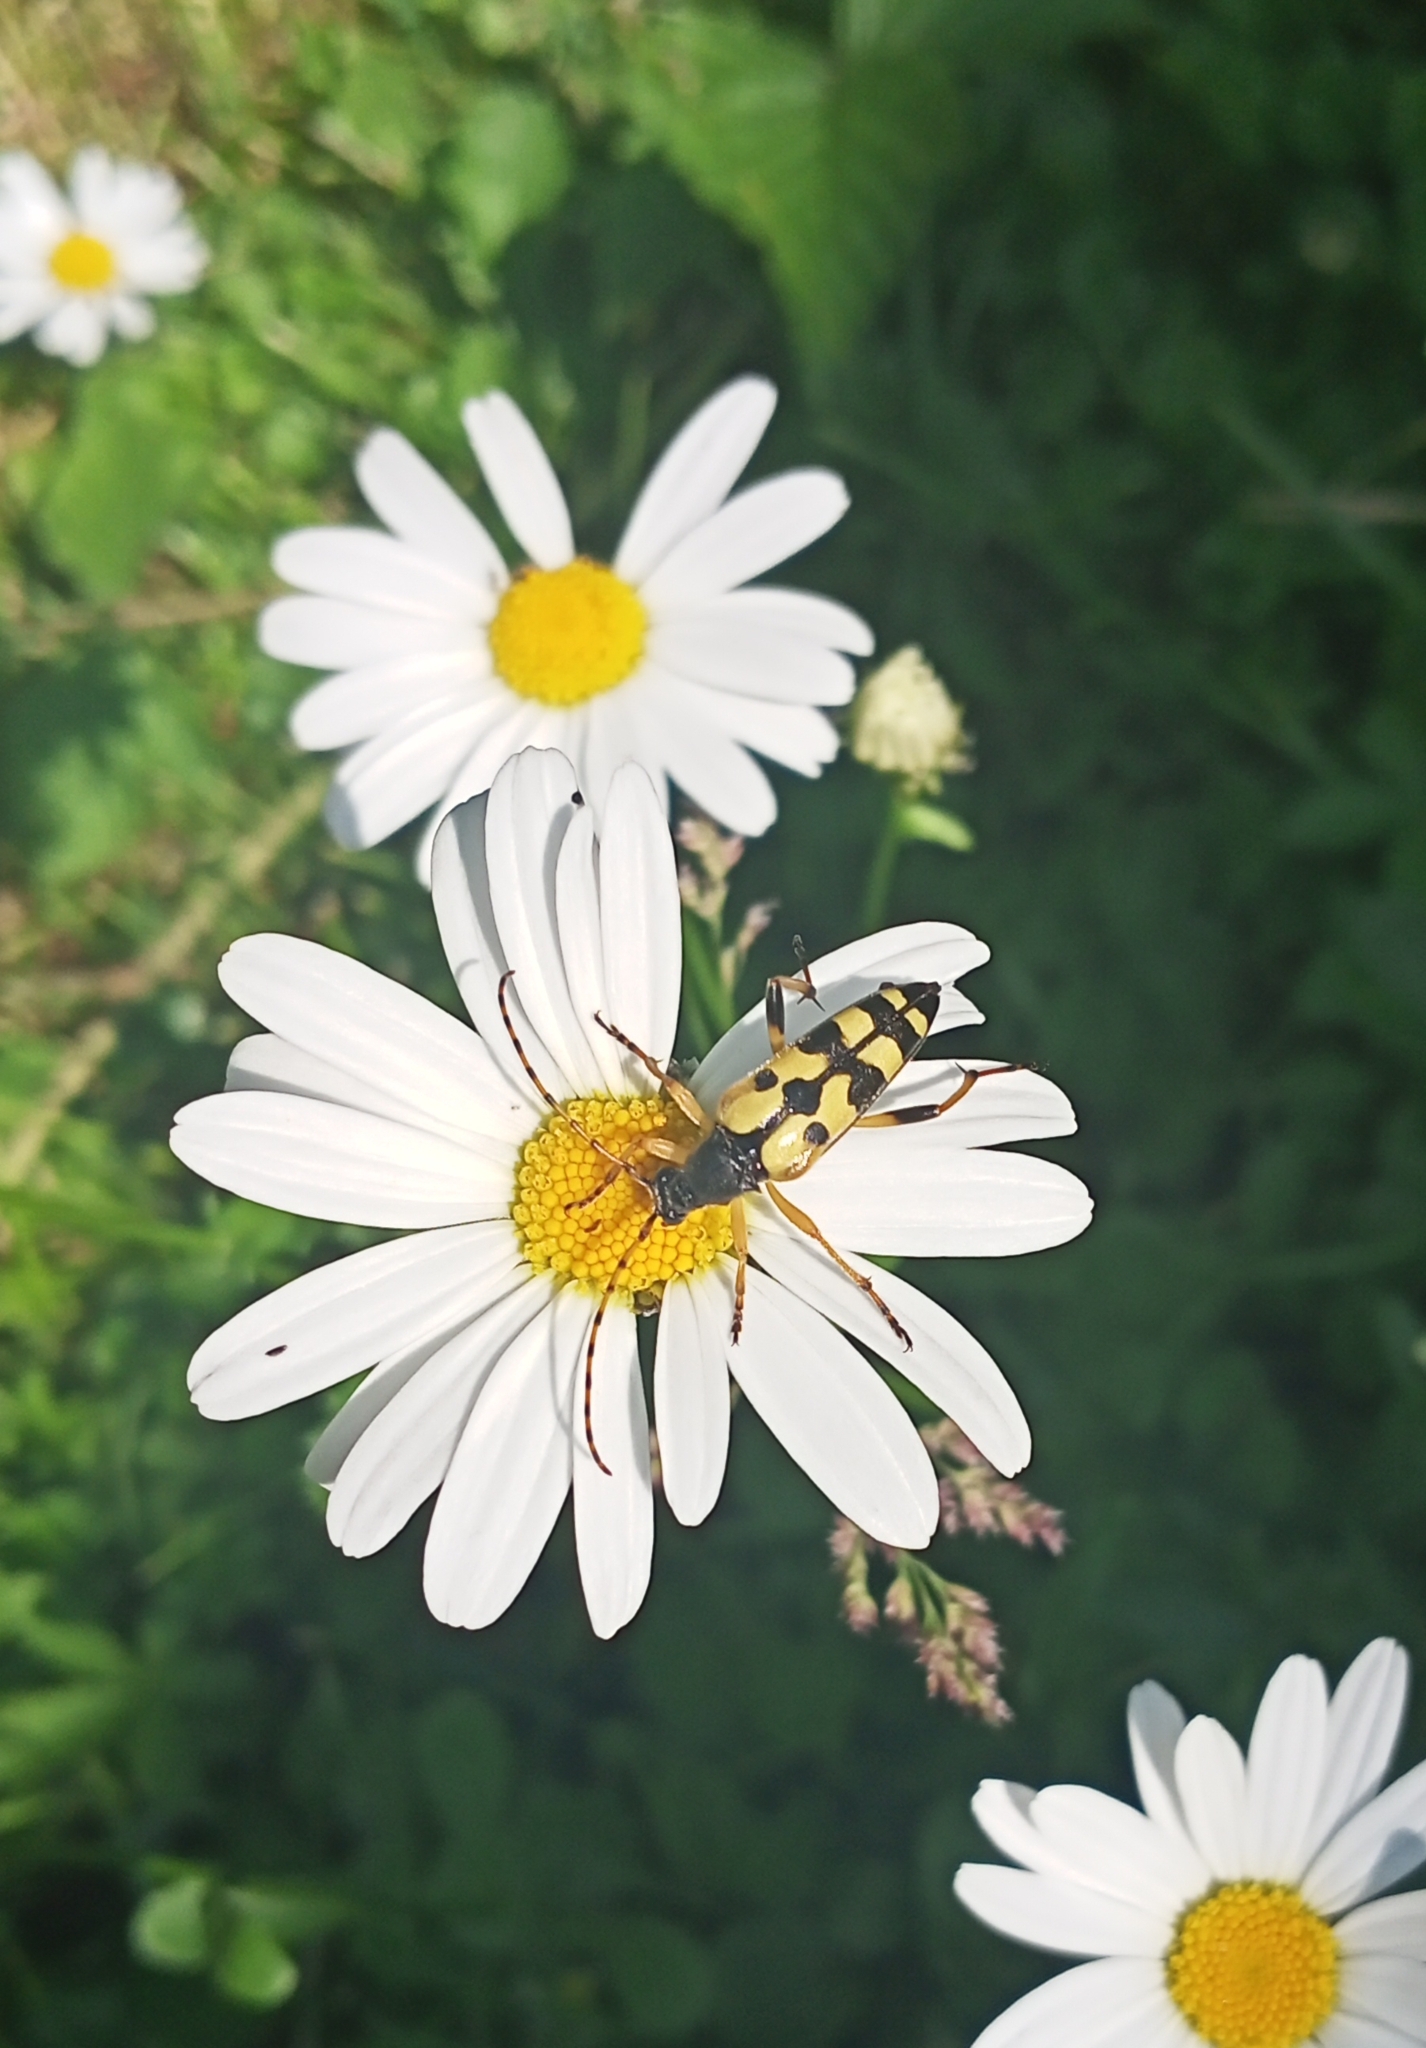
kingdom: Animalia
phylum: Arthropoda
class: Insecta
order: Coleoptera
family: Cerambycidae
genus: Rutpela
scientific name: Rutpela maculata
